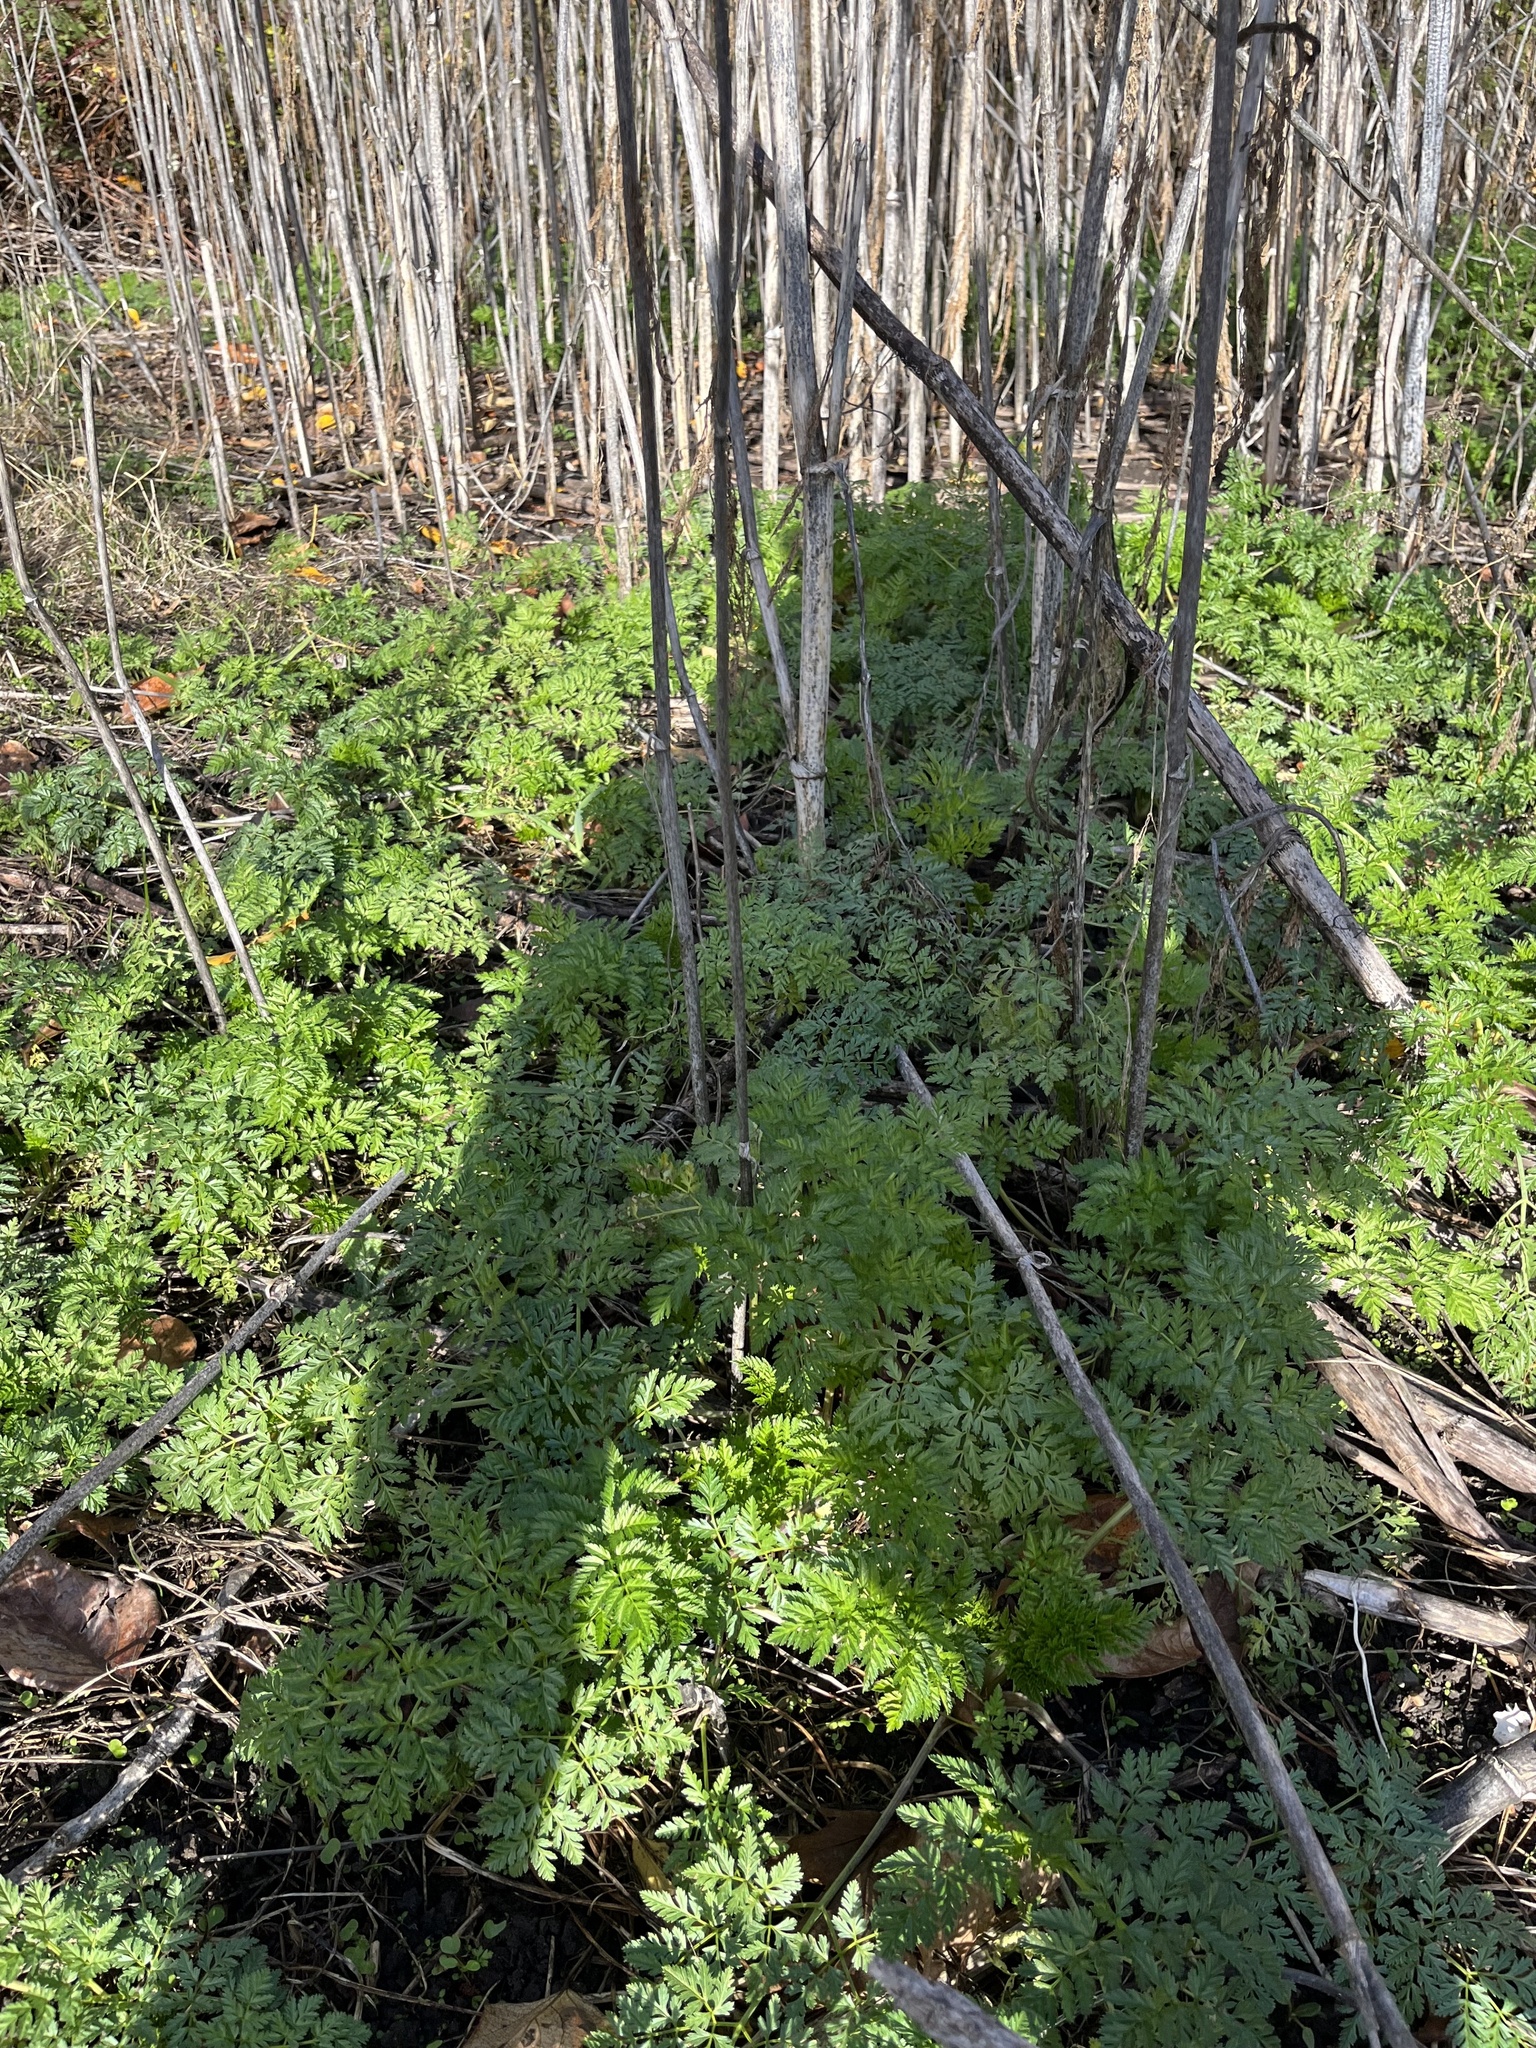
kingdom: Plantae
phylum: Tracheophyta
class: Magnoliopsida
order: Apiales
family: Apiaceae
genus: Conium
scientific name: Conium maculatum
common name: Hemlock
